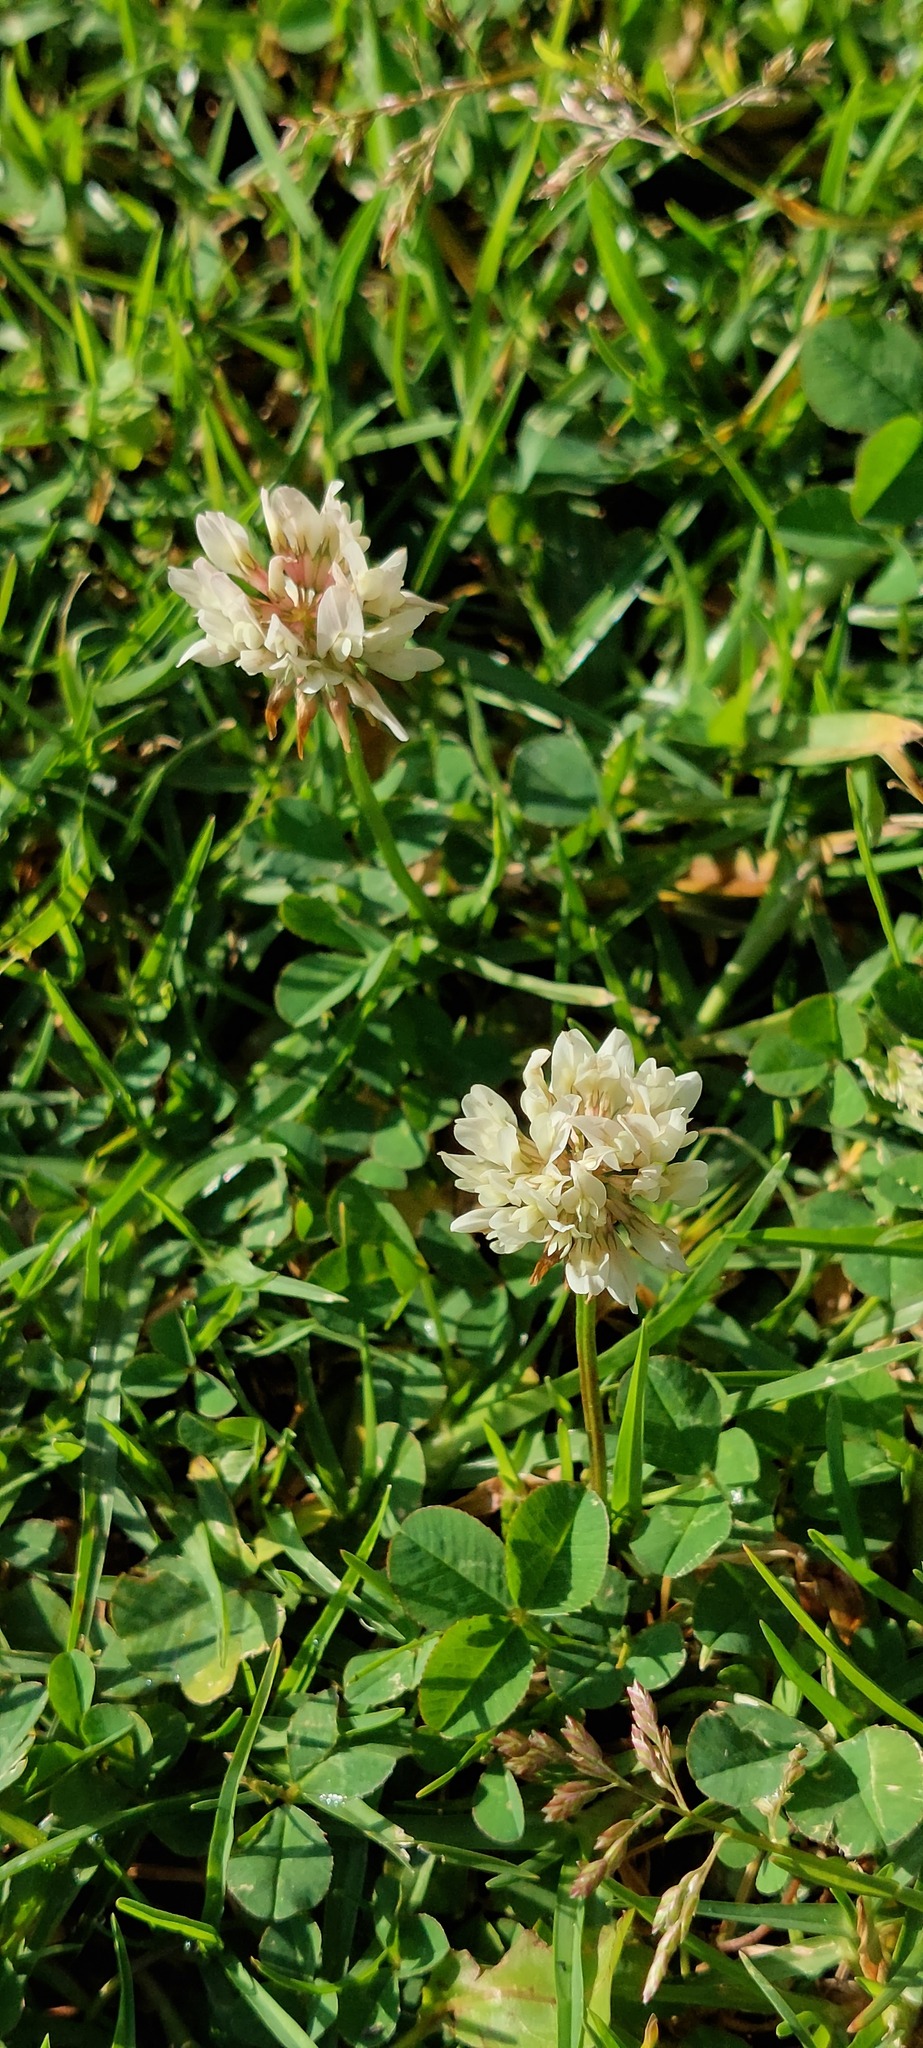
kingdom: Plantae
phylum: Tracheophyta
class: Magnoliopsida
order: Fabales
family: Fabaceae
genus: Trifolium
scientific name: Trifolium repens
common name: White clover
